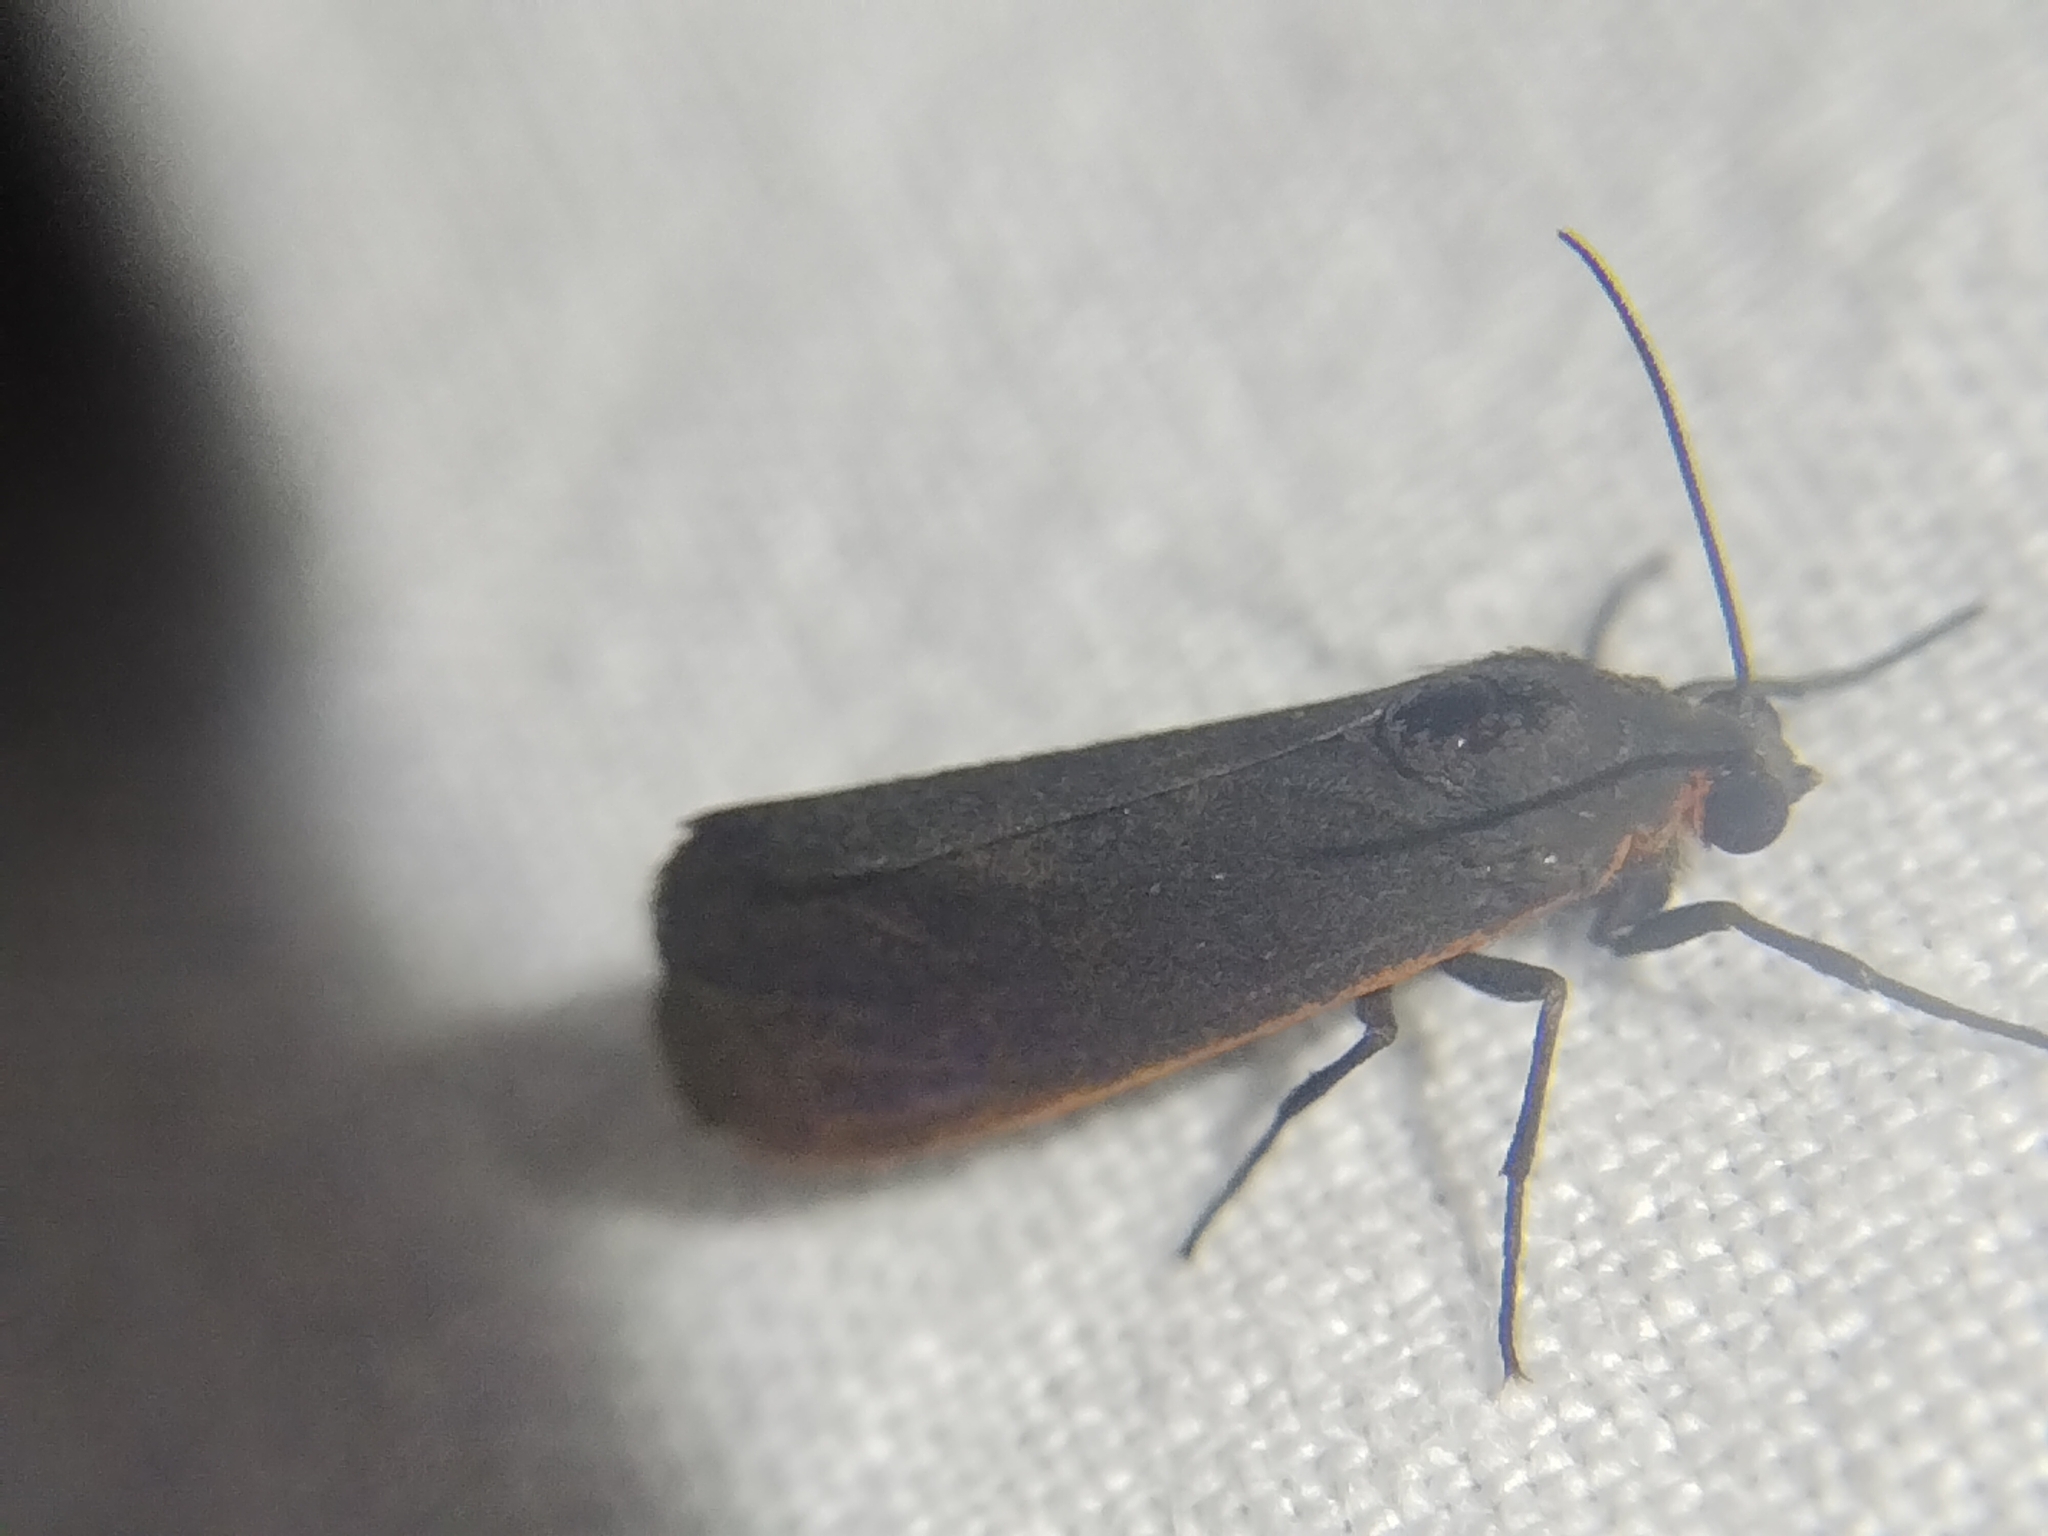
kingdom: Animalia
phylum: Arthropoda
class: Insecta
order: Lepidoptera
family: Erebidae
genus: Virbia
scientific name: Virbia laeta
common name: Joyful holomelina moth
